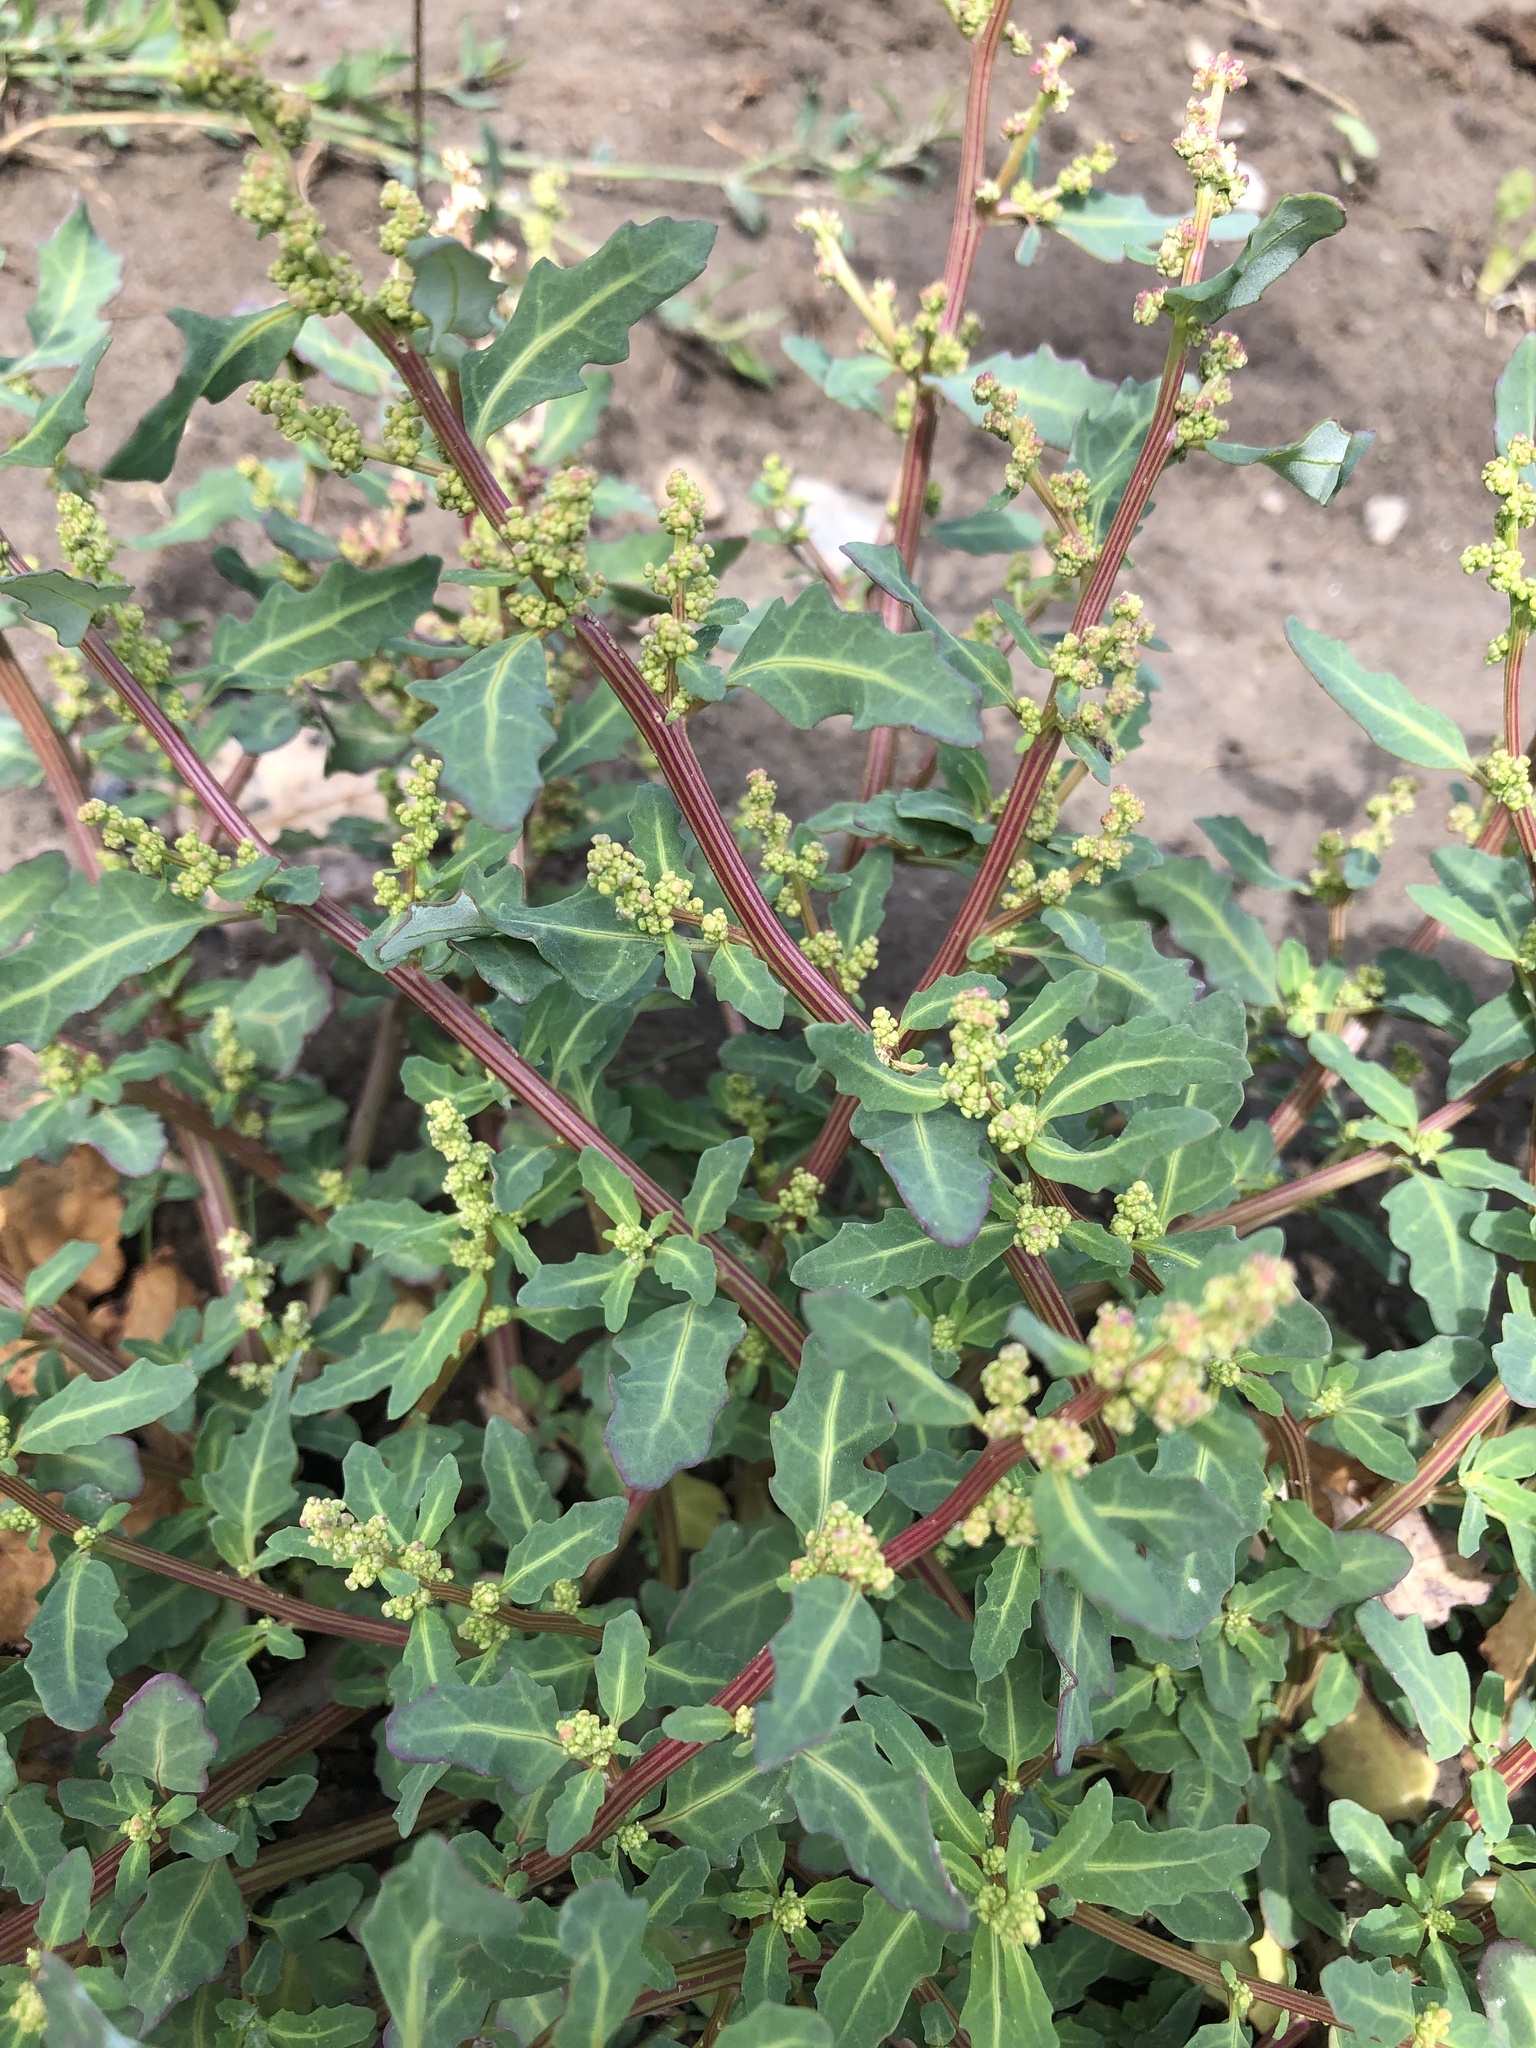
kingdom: Plantae
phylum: Tracheophyta
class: Magnoliopsida
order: Caryophyllales
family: Amaranthaceae
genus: Oxybasis
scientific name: Oxybasis glauca
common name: Glaucous goosefoot
